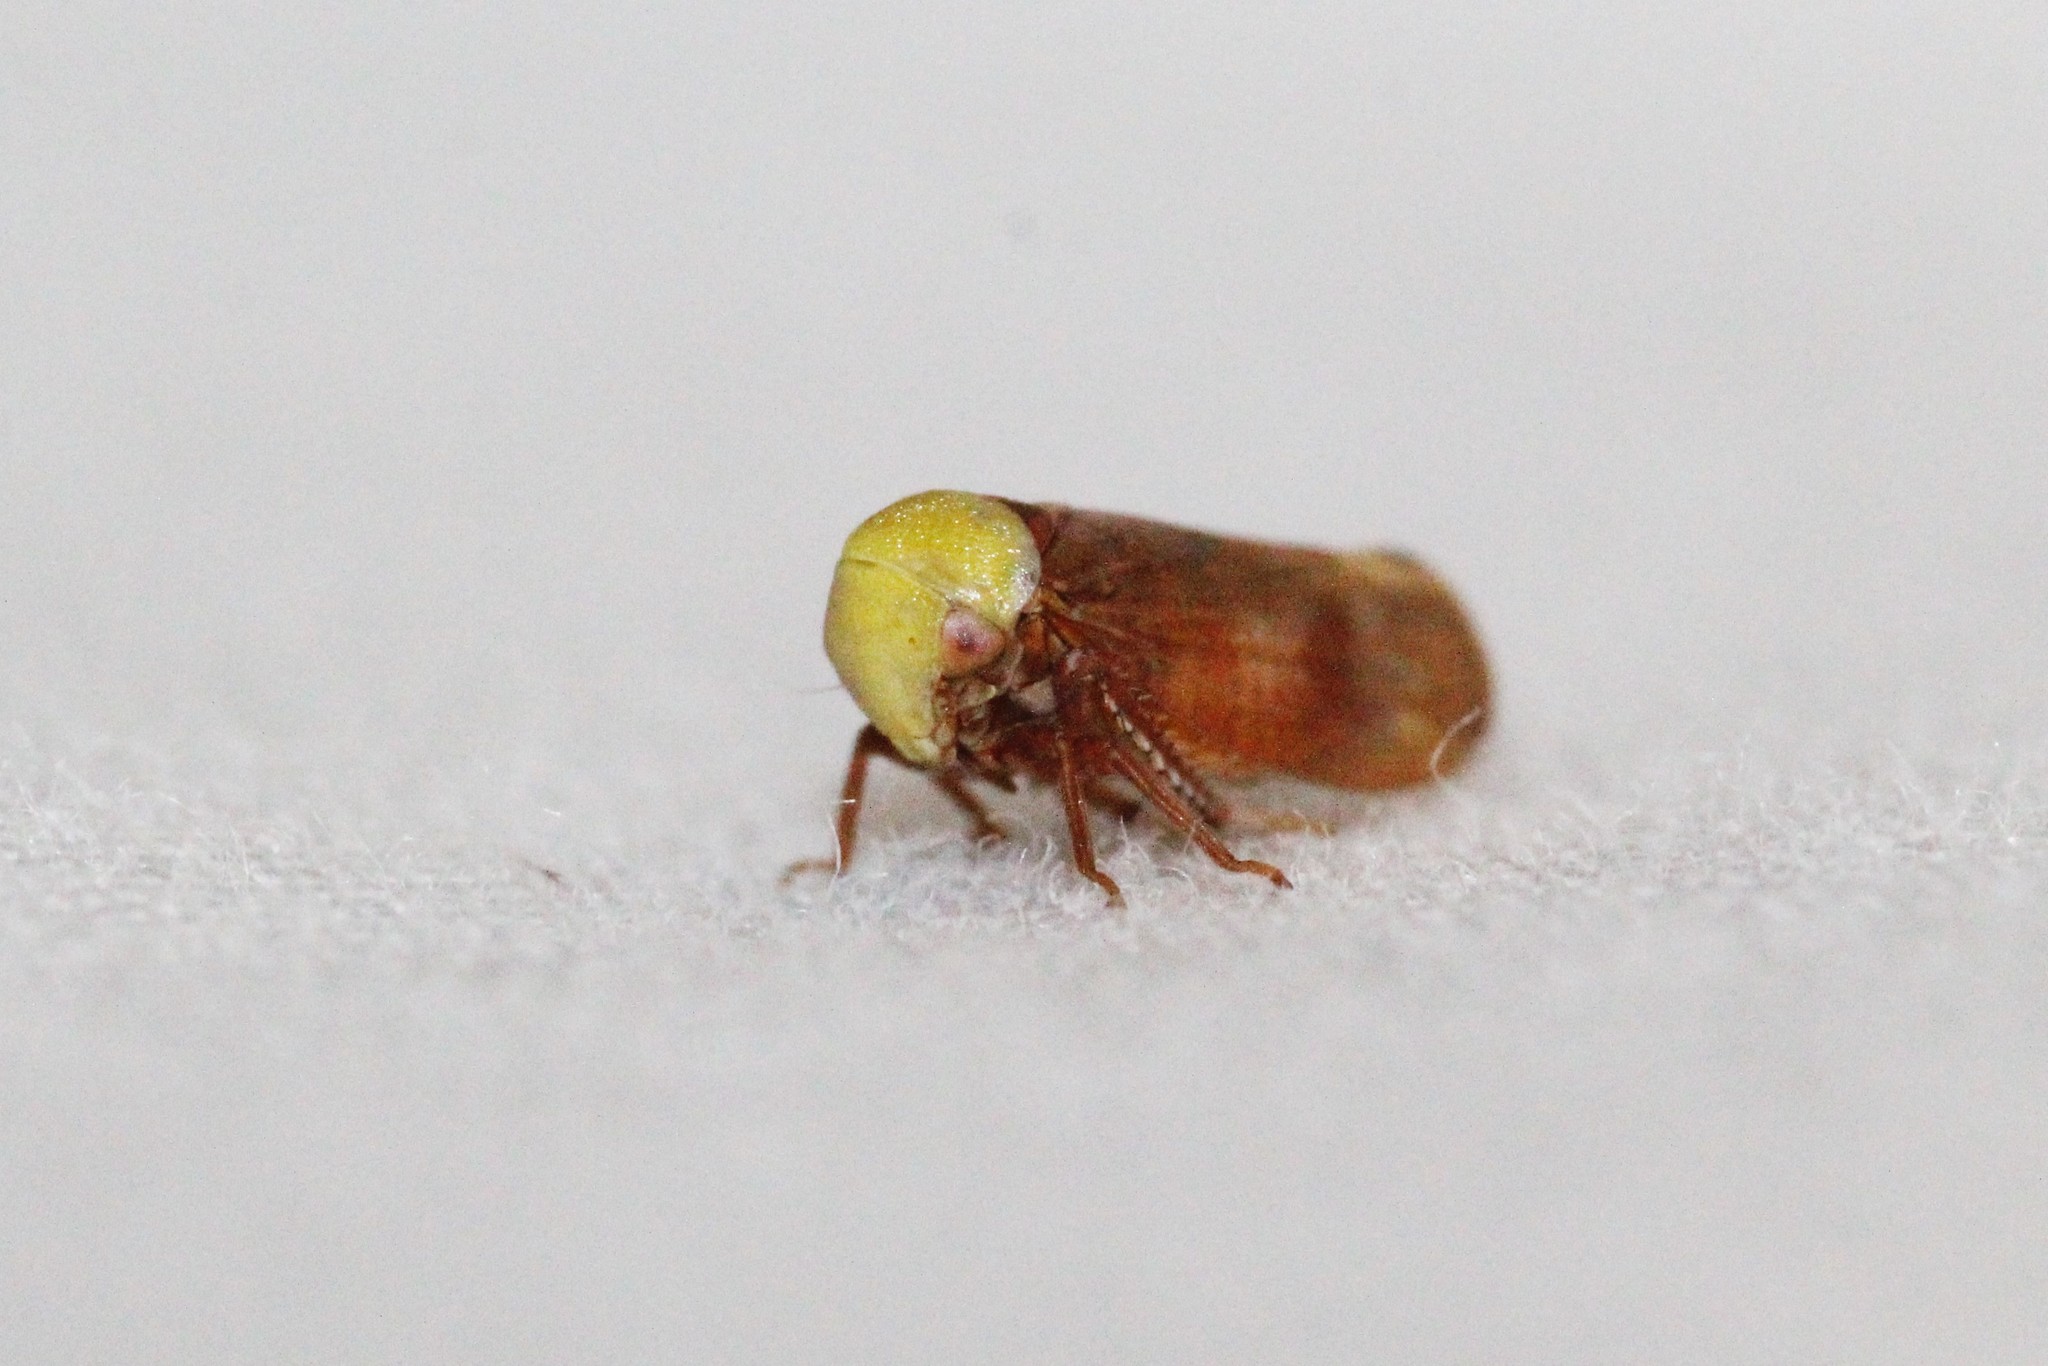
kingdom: Animalia
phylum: Arthropoda
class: Insecta
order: Hemiptera
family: Cicadellidae
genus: Pediopsis
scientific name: Pediopsis tiliae
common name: Leafhopper
